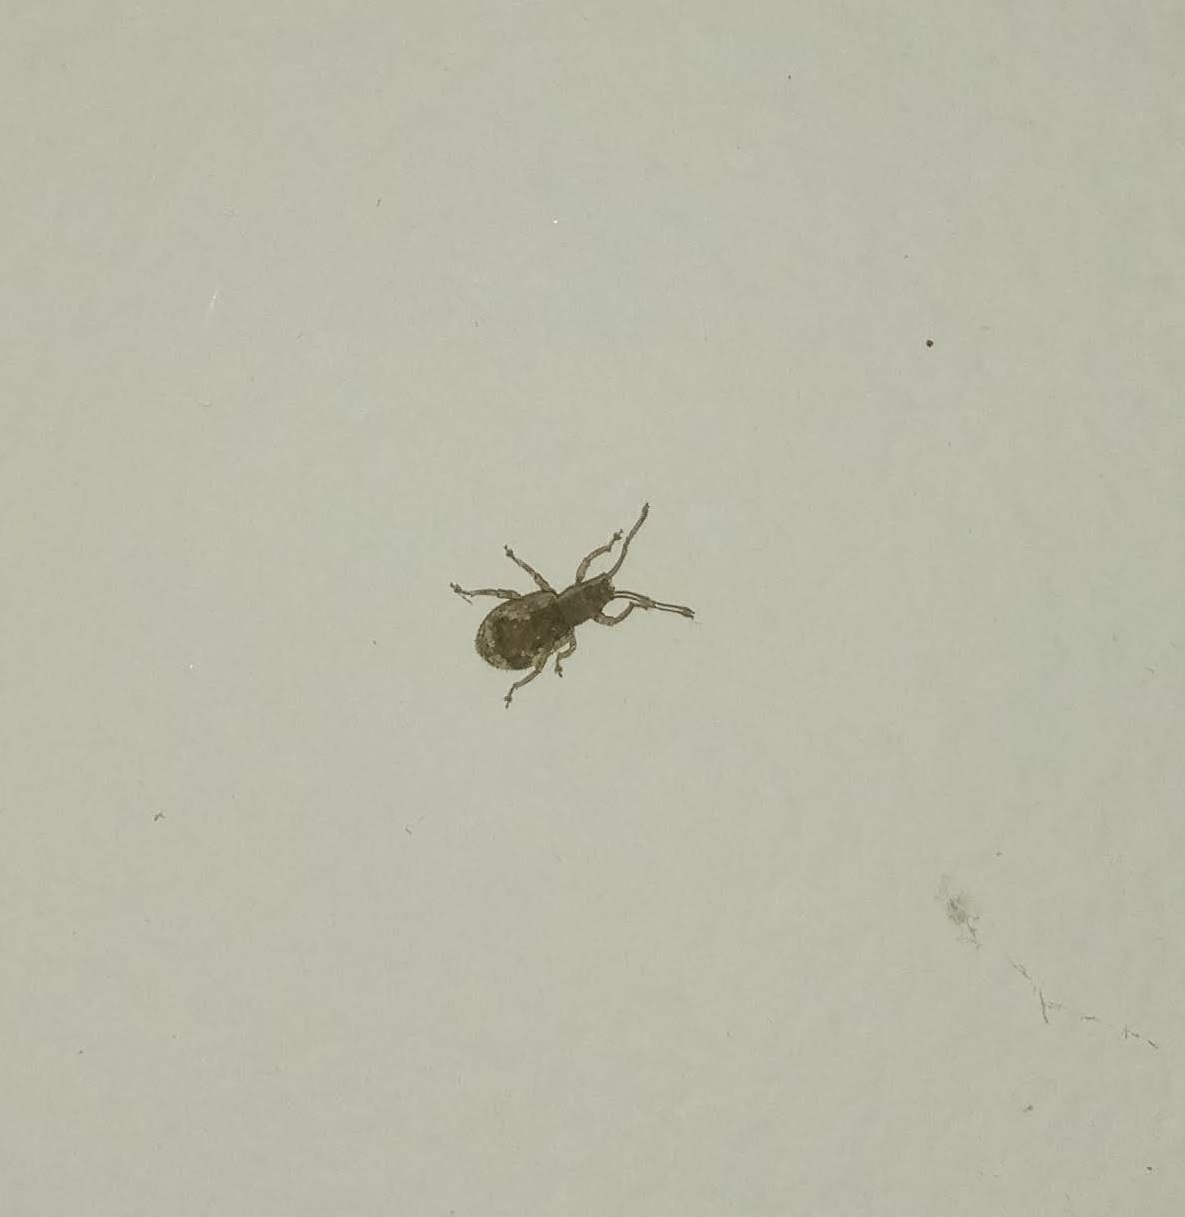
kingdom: Animalia
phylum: Arthropoda
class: Insecta
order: Coleoptera
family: Curculionidae
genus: Pseudoedophrys
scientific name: Pseudoedophrys hilleri
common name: Weevil
